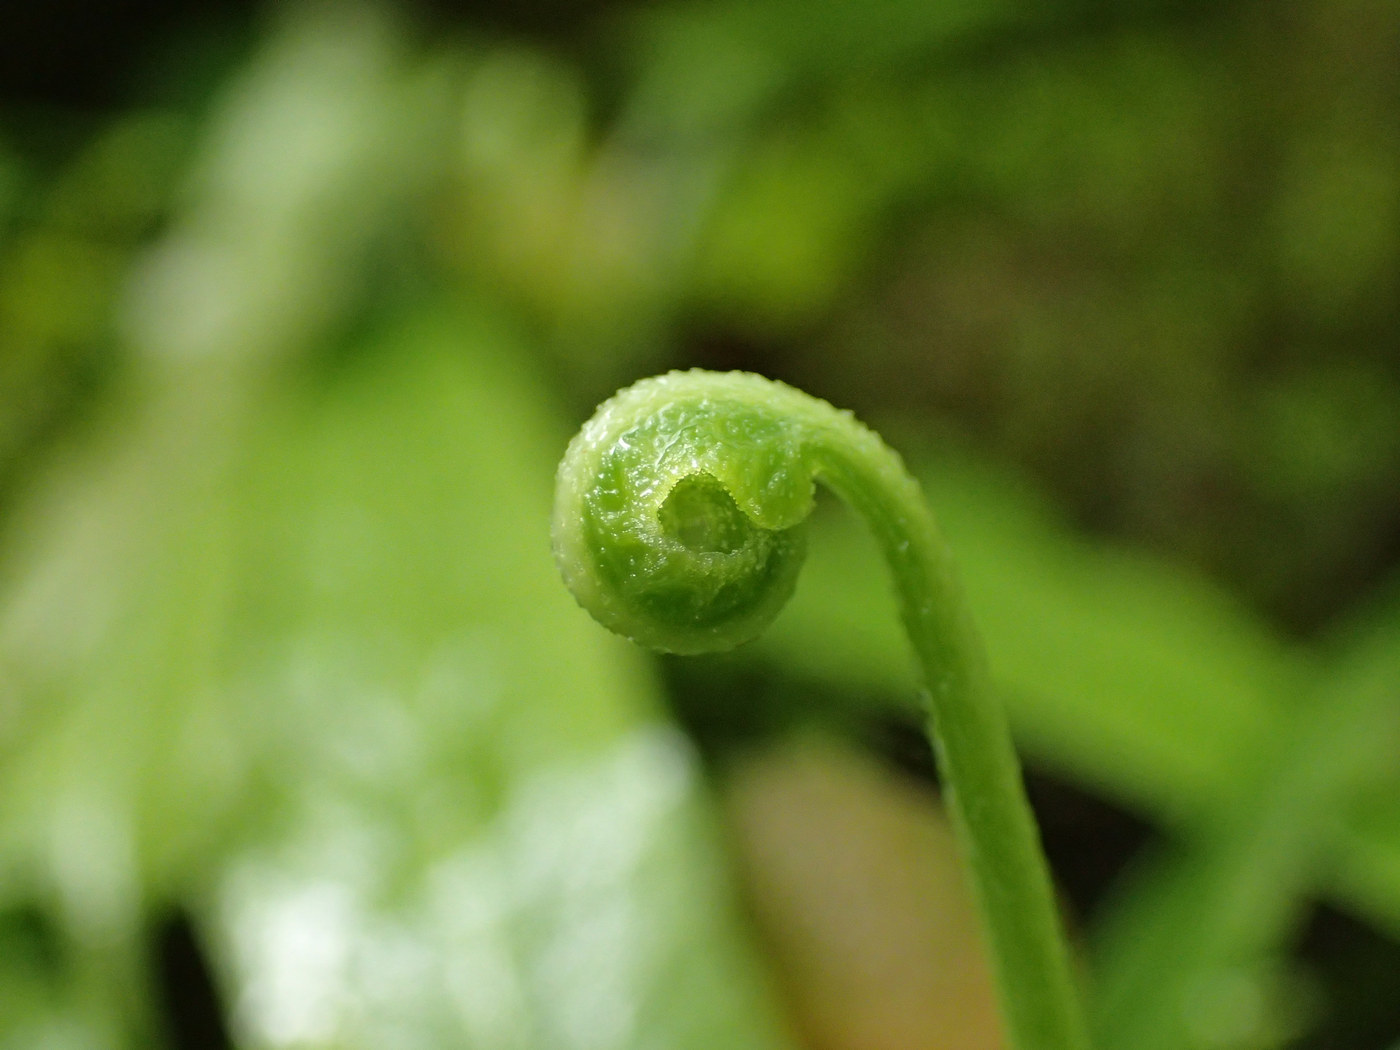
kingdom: Plantae
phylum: Tracheophyta
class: Polypodiopsida
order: Polypodiales
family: Aspleniaceae
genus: Asplenium
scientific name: Asplenium rhizophyllum
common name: Walking fern
